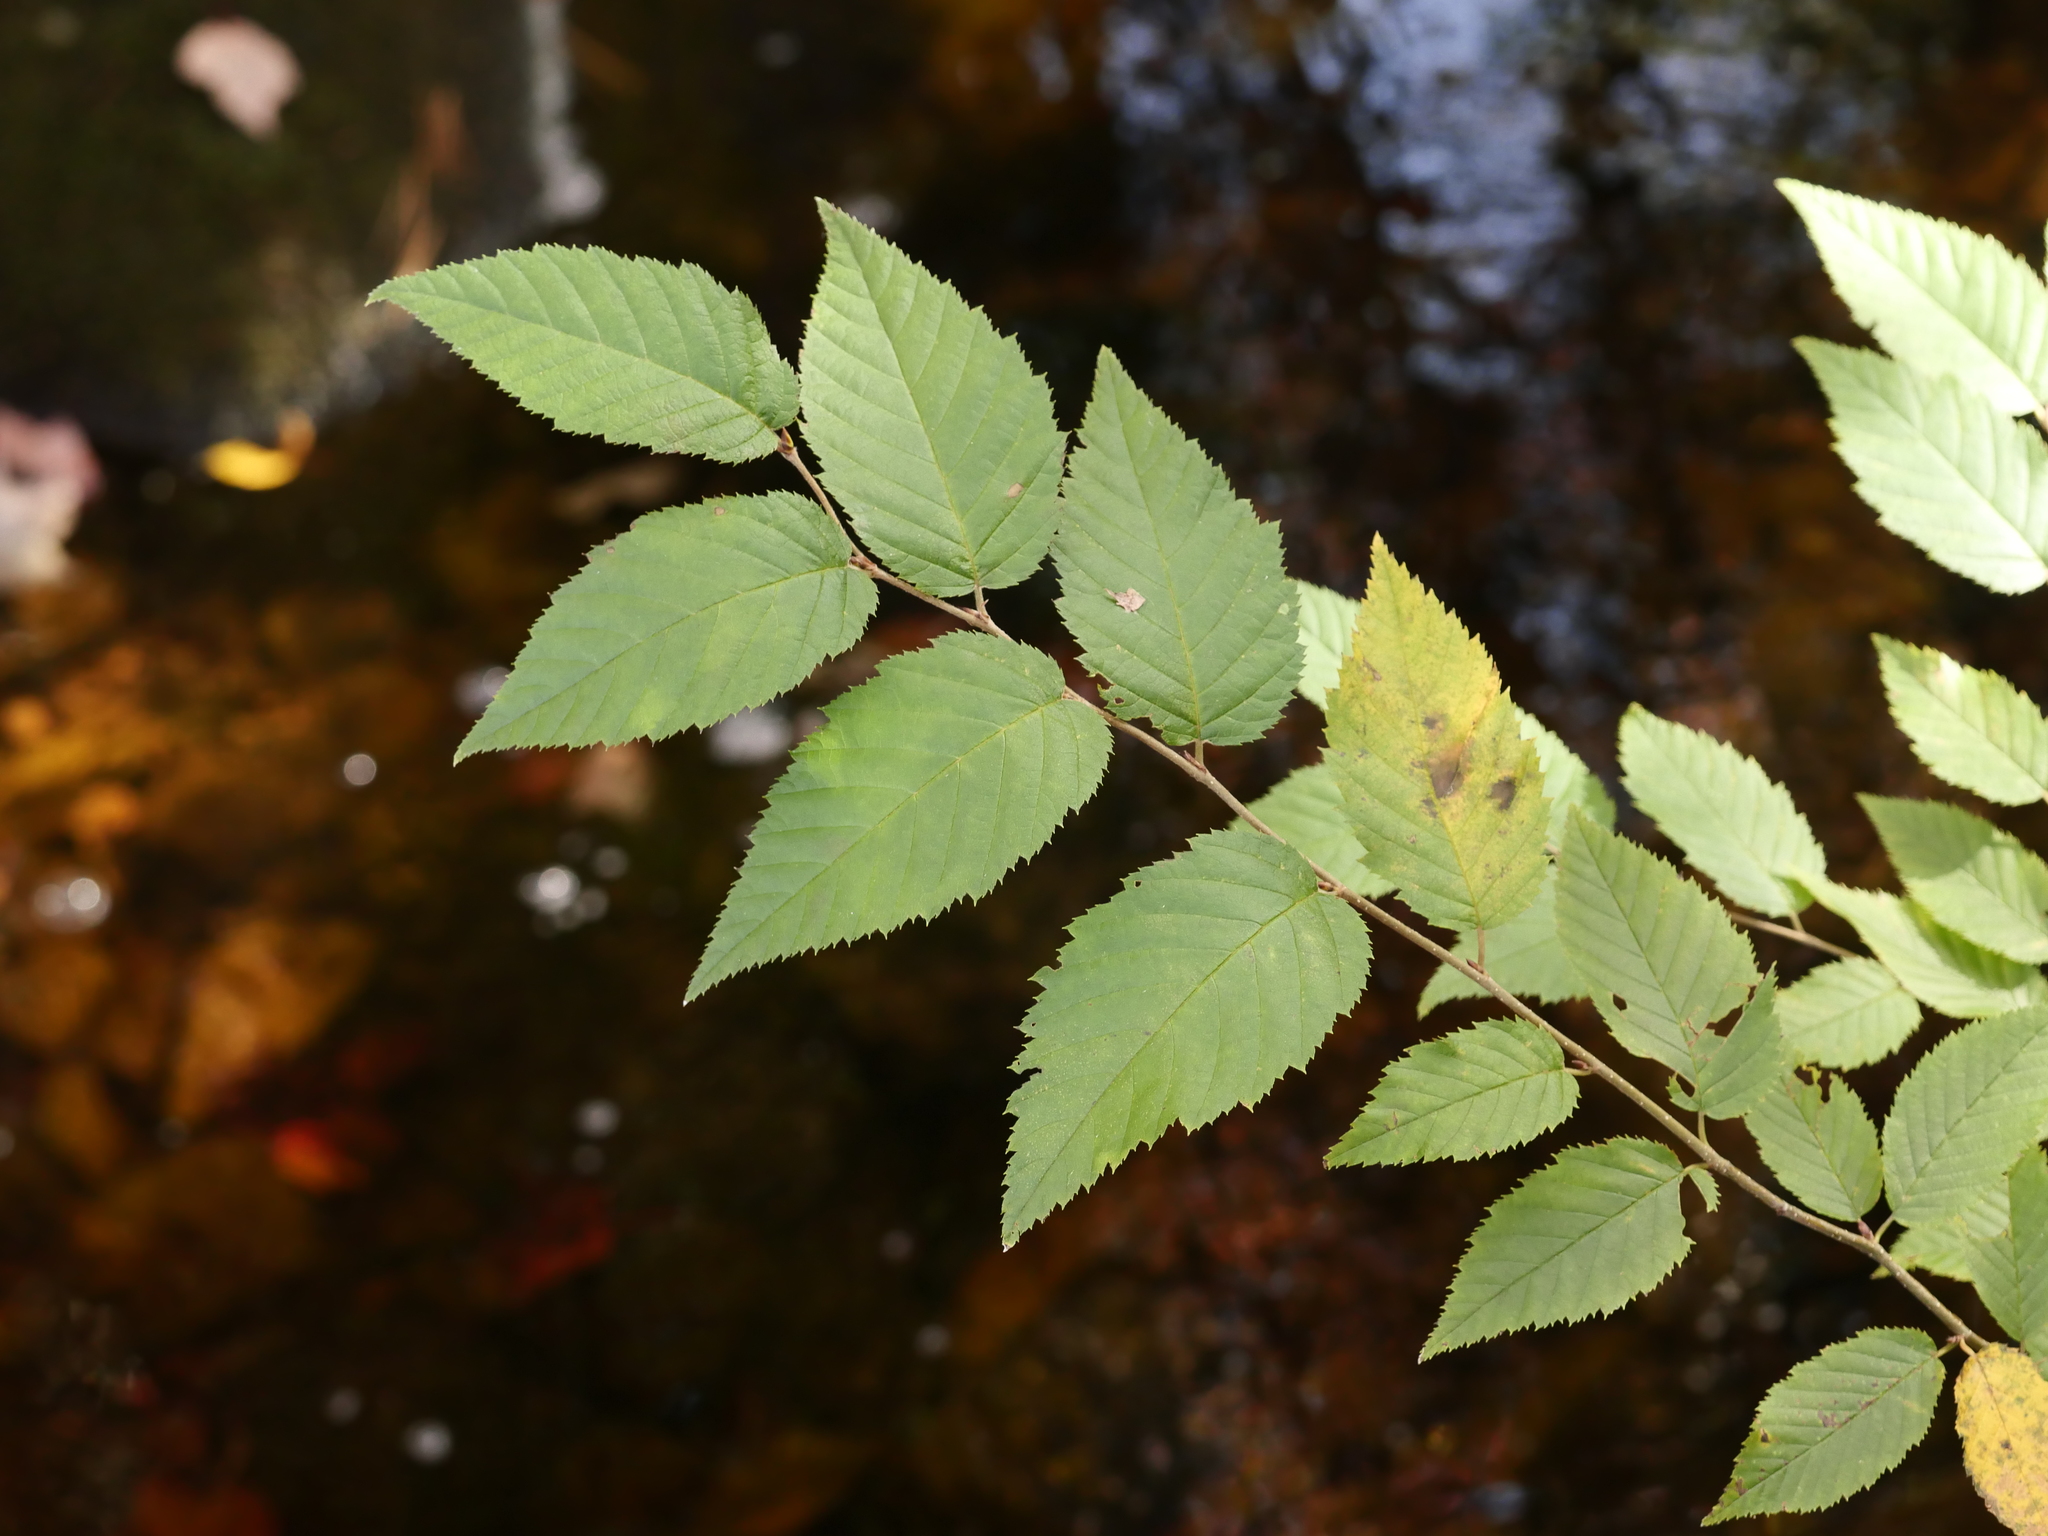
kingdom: Plantae
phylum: Tracheophyta
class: Magnoliopsida
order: Fagales
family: Betulaceae
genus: Betula
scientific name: Betula alleghaniensis
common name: Yellow birch
